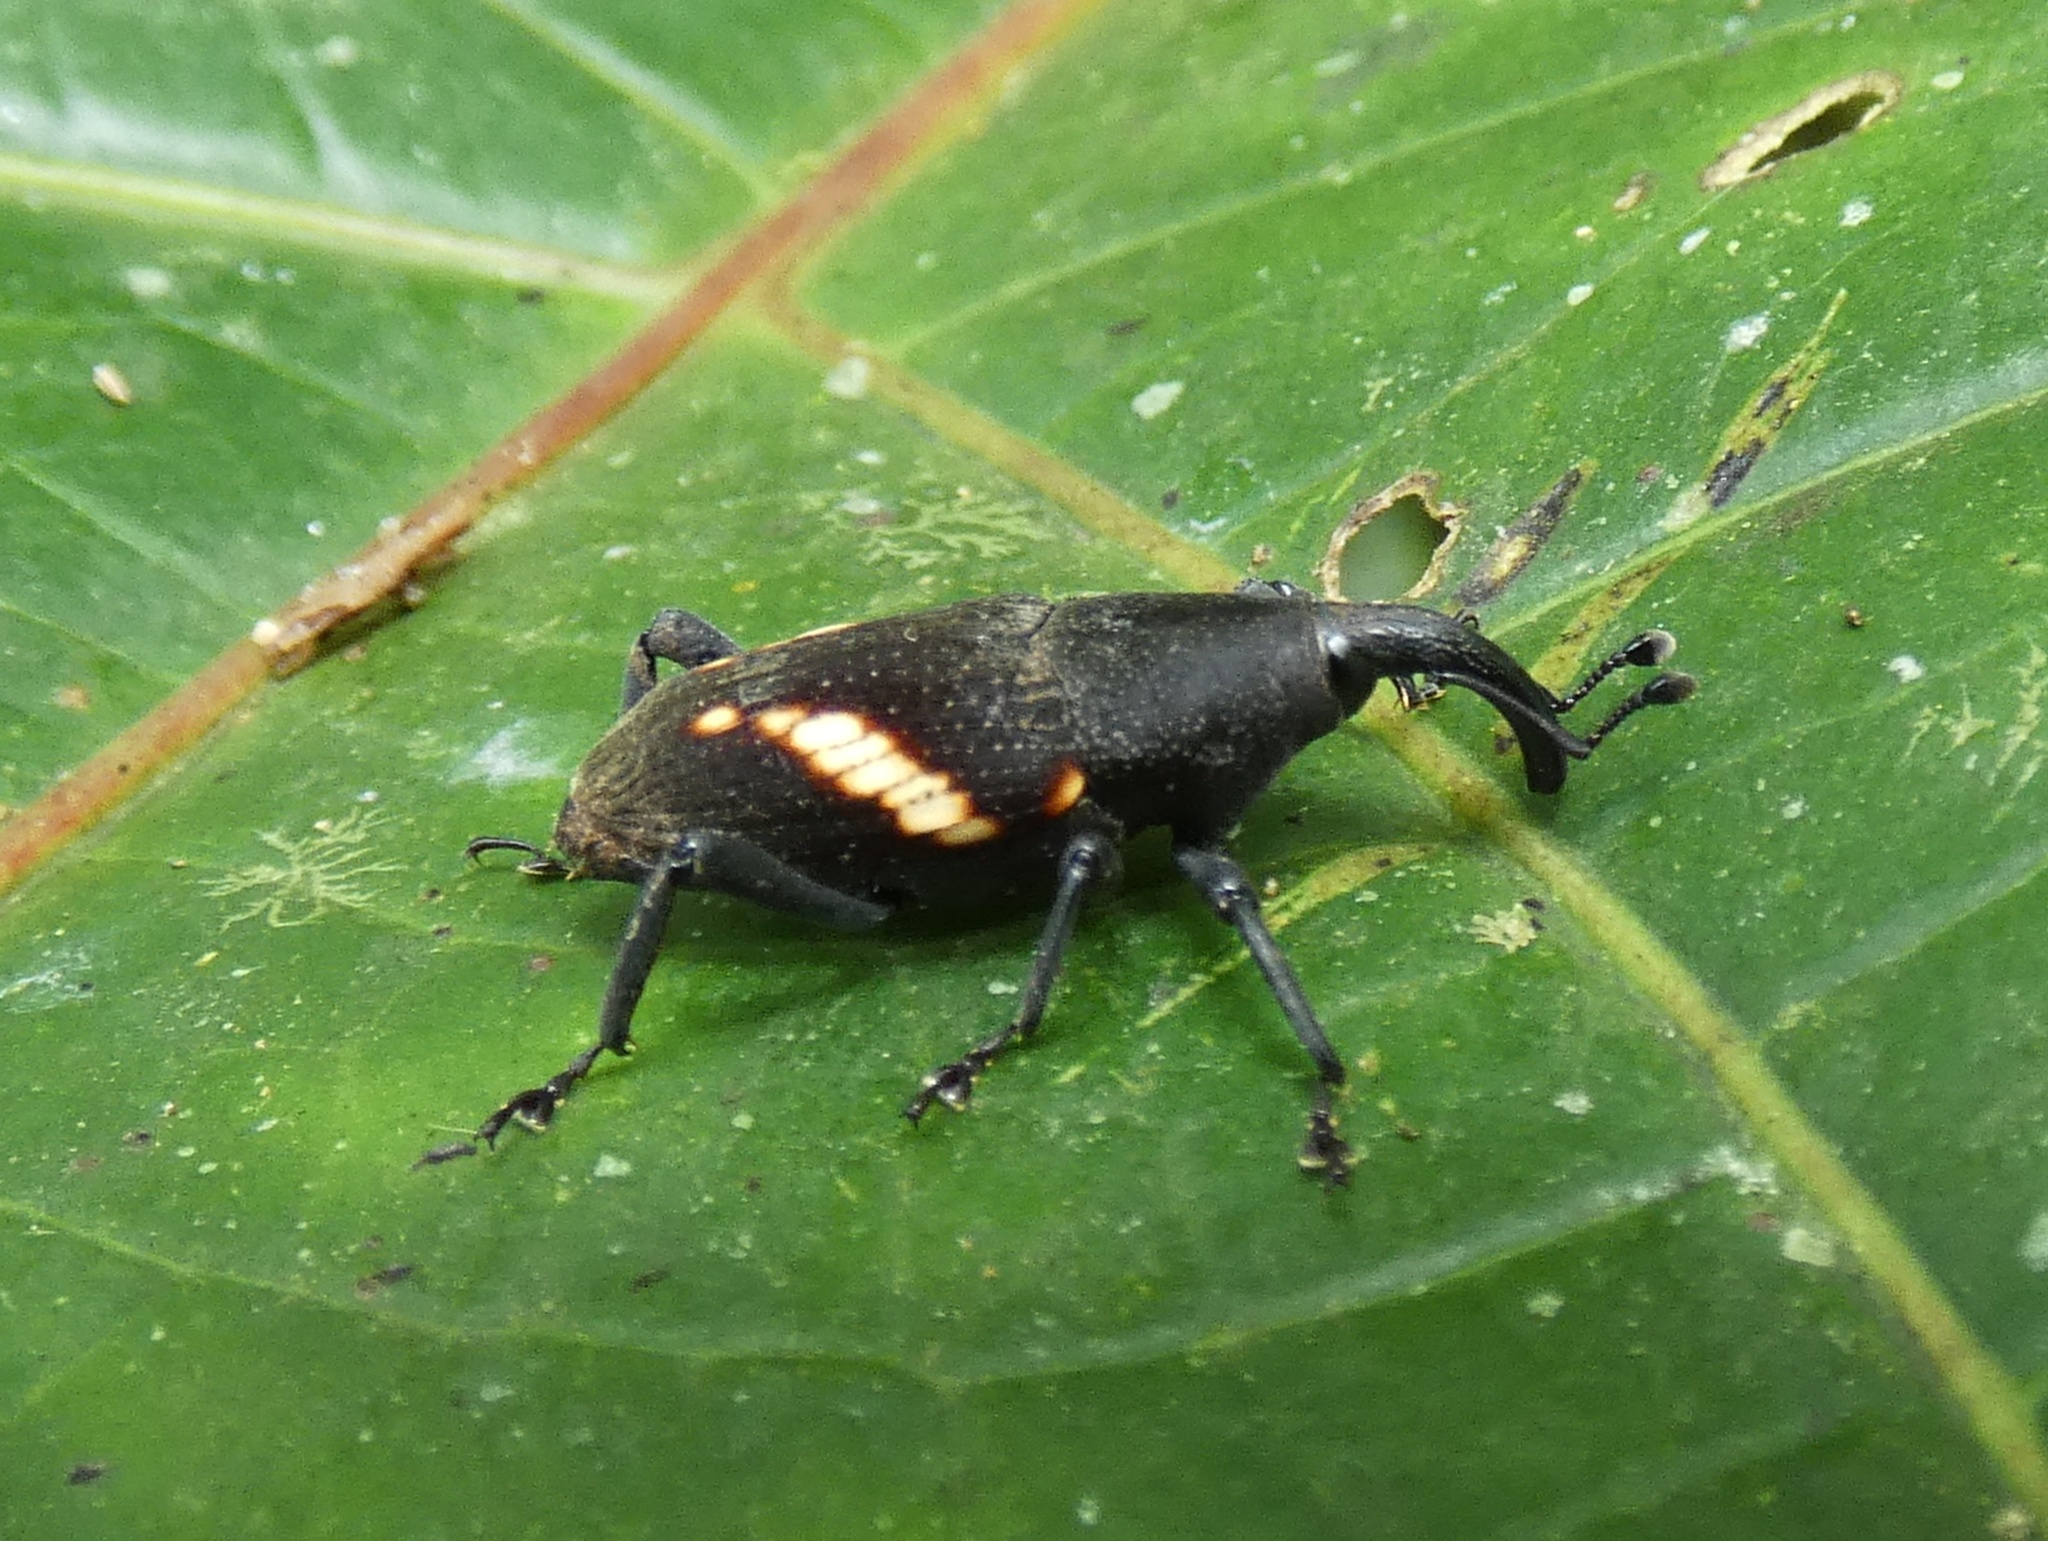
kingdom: Animalia
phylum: Arthropoda
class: Insecta
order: Coleoptera
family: Dryophthoridae
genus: Cactophagus
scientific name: Cactophagus
